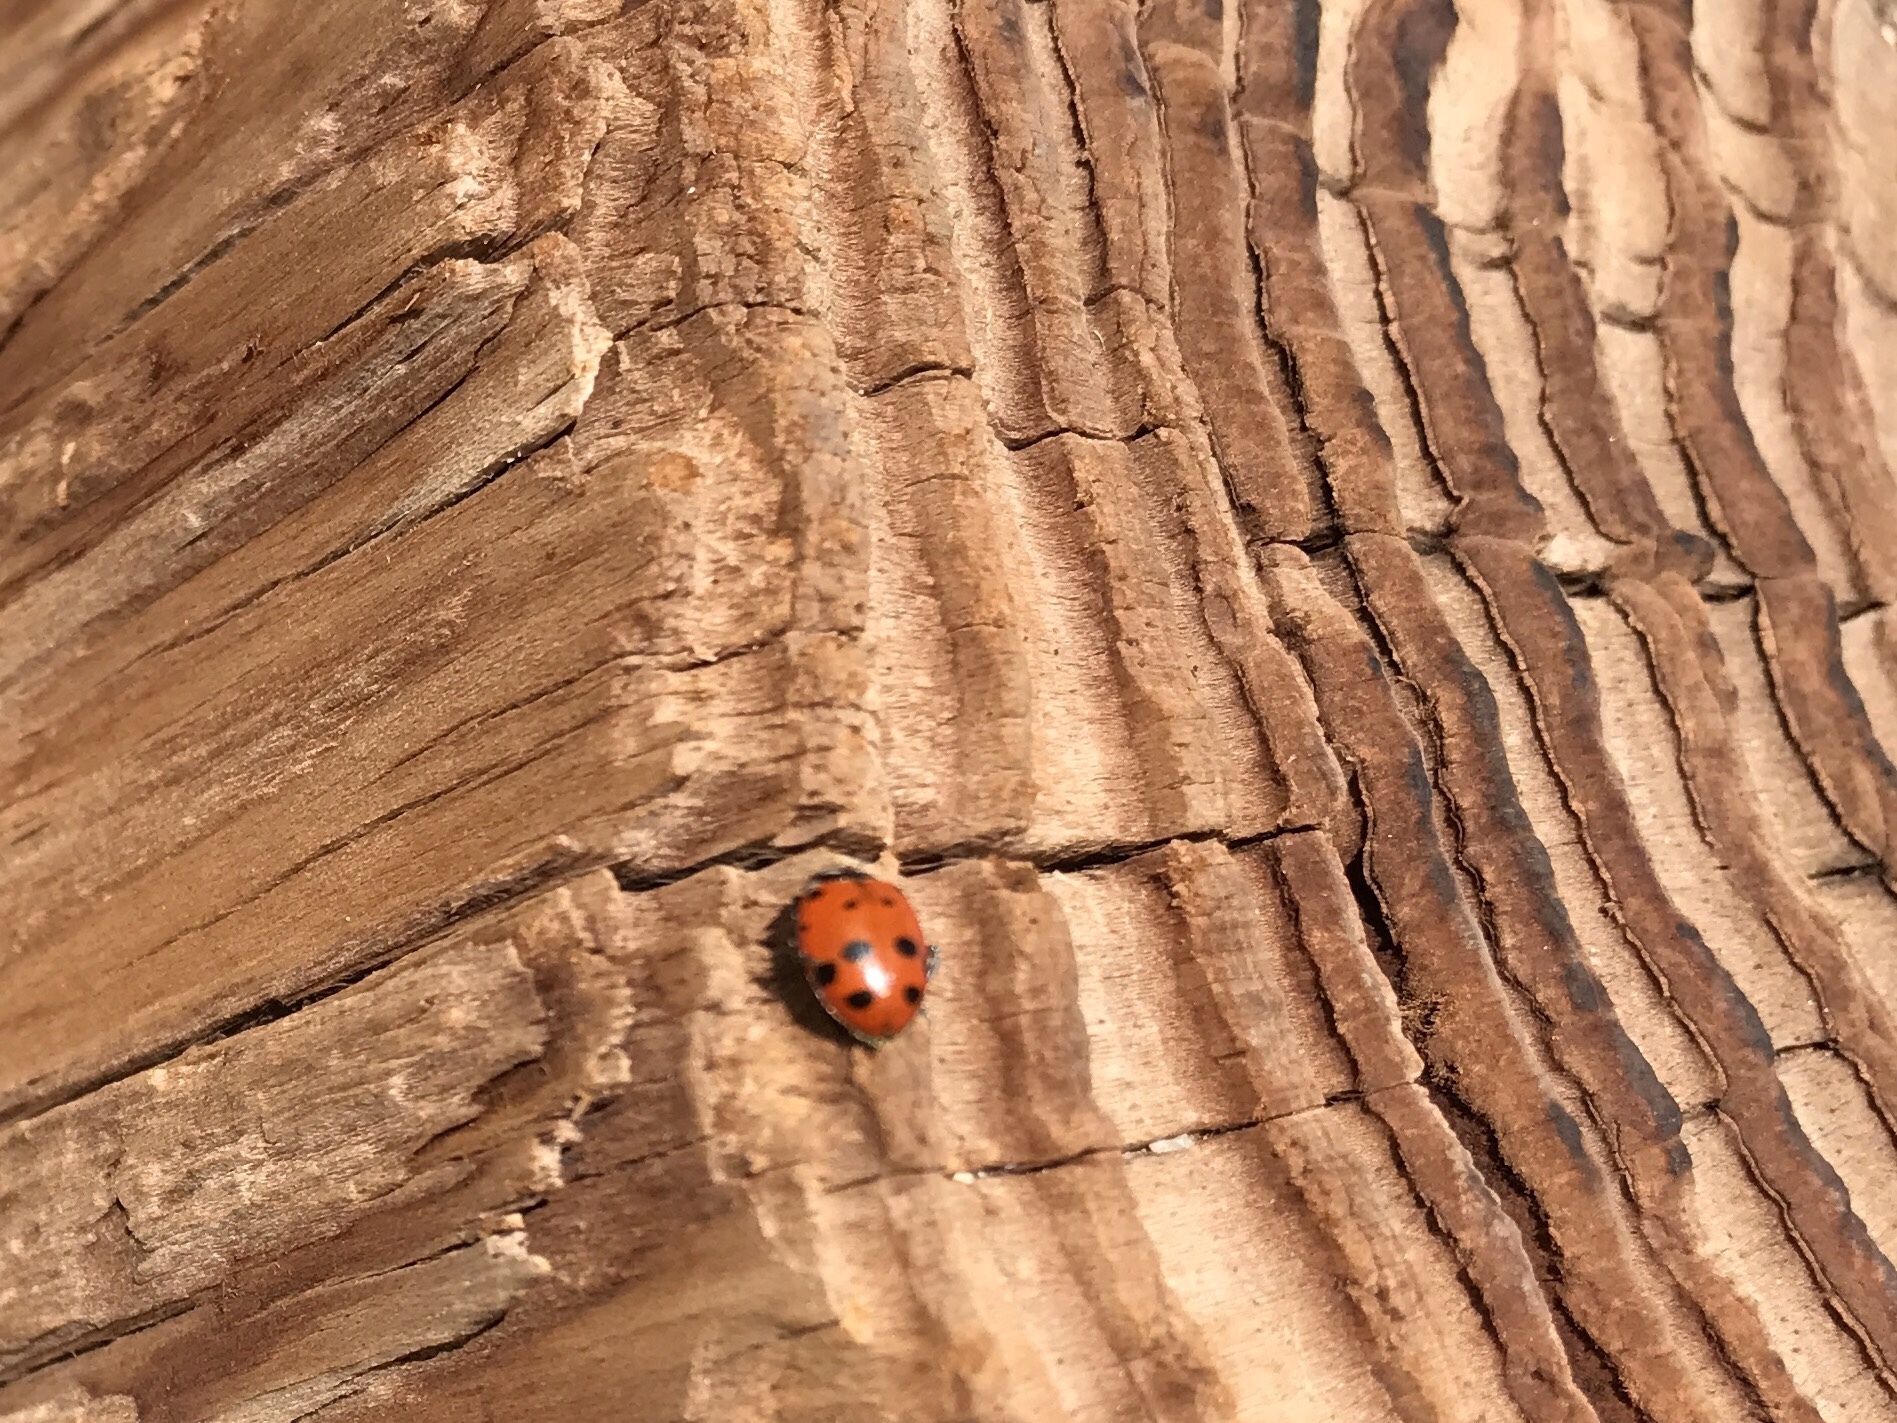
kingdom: Animalia
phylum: Arthropoda
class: Insecta
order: Coleoptera
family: Coccinellidae
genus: Hippodamia
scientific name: Hippodamia convergens
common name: Convergent lady beetle
